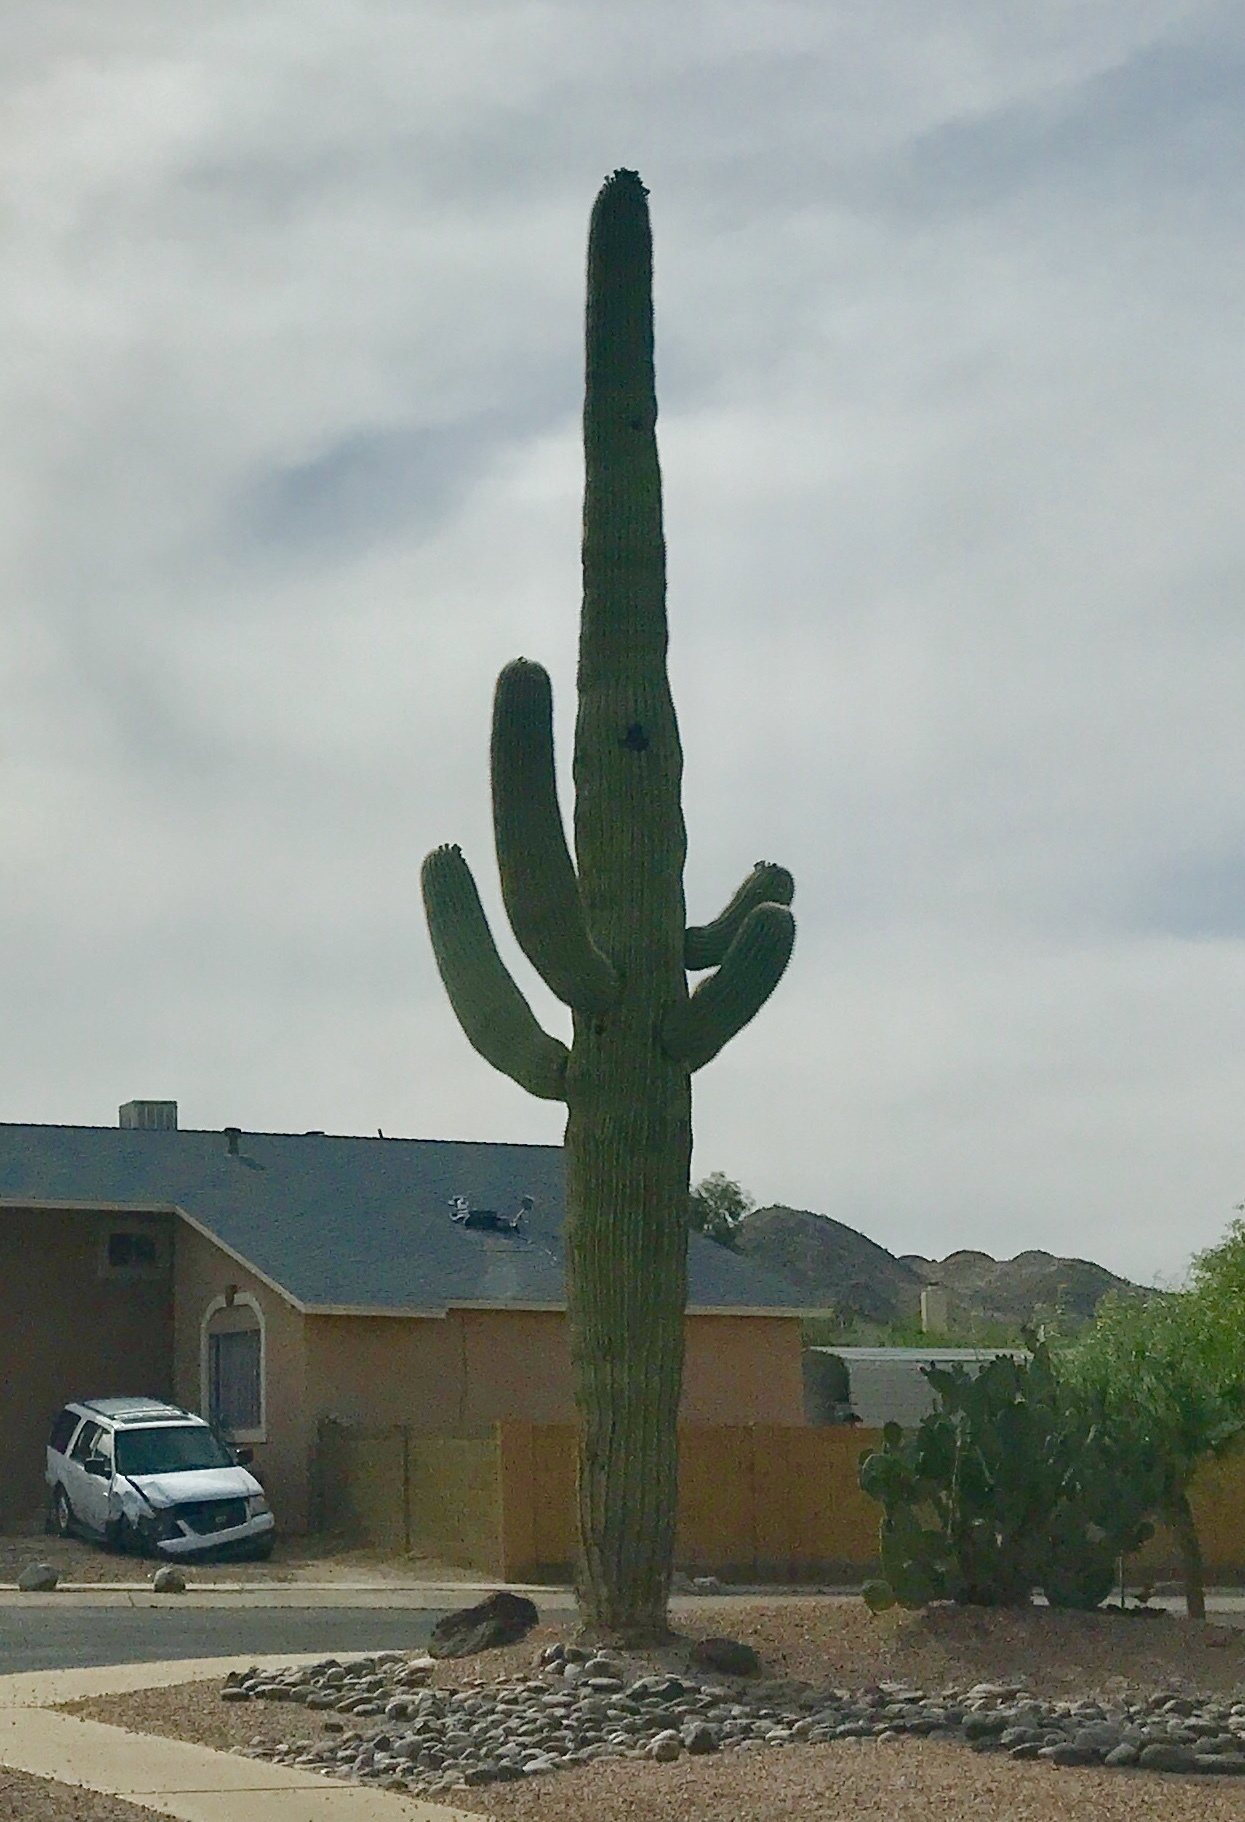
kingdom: Plantae
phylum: Tracheophyta
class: Magnoliopsida
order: Caryophyllales
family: Cactaceae
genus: Carnegiea
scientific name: Carnegiea gigantea
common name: Saguaro
